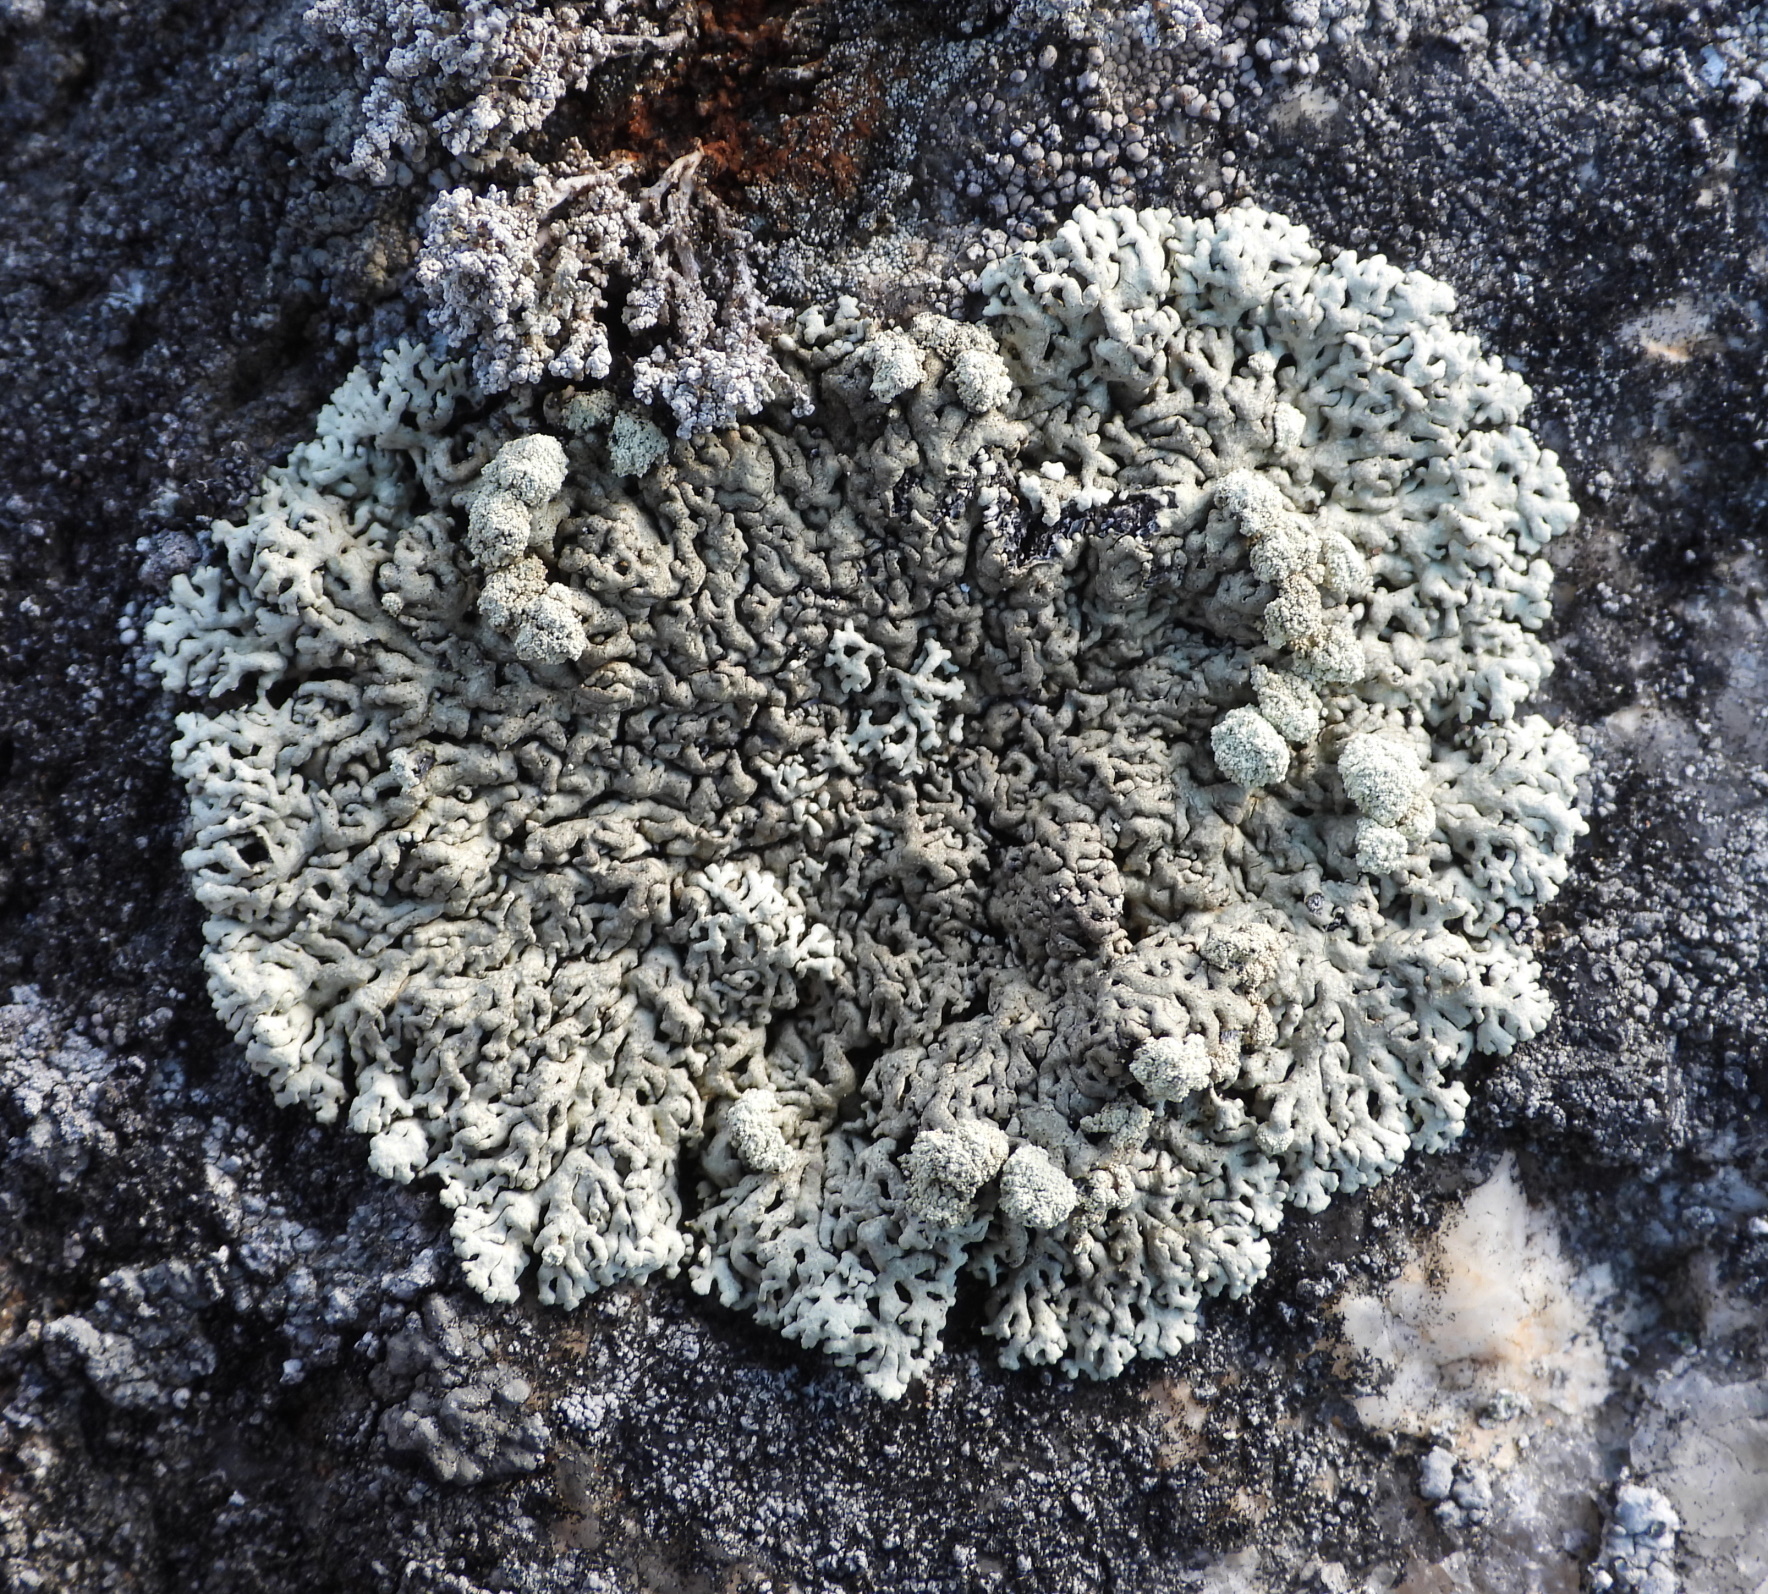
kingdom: Fungi
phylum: Ascomycota
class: Lecanoromycetes
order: Lecanorales
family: Parmeliaceae
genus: Arctoparmelia
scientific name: Arctoparmelia incurva
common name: Bent ring lichen
